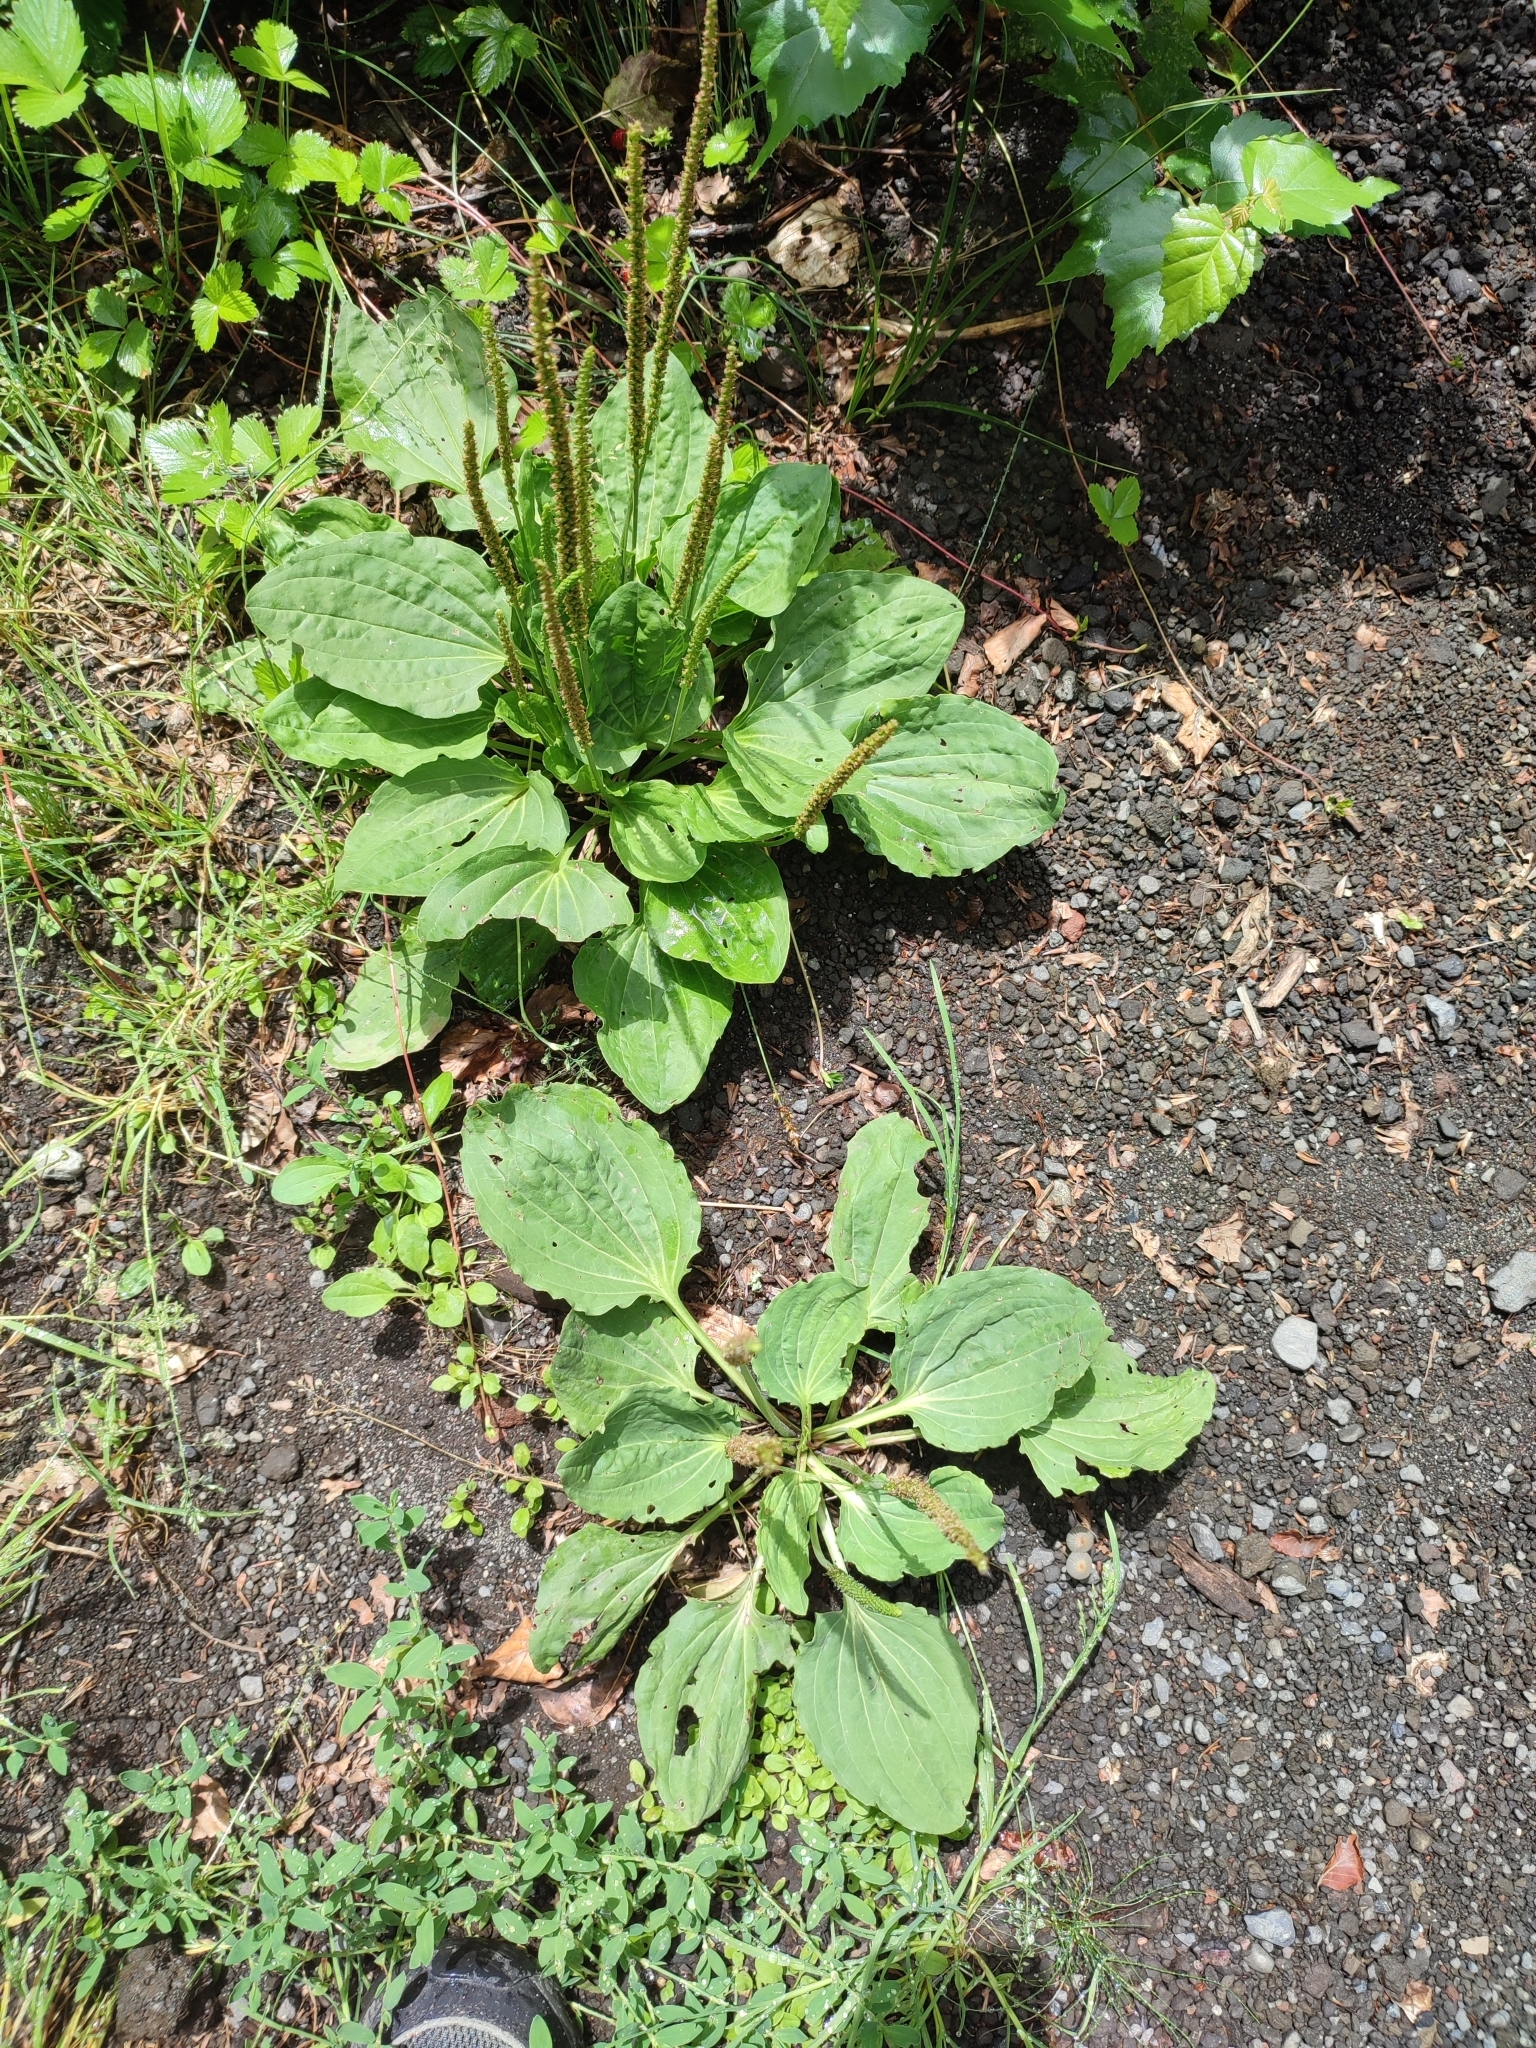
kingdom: Plantae
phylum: Tracheophyta
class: Magnoliopsida
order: Lamiales
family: Plantaginaceae
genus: Plantago
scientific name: Plantago major
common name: Common plantain
